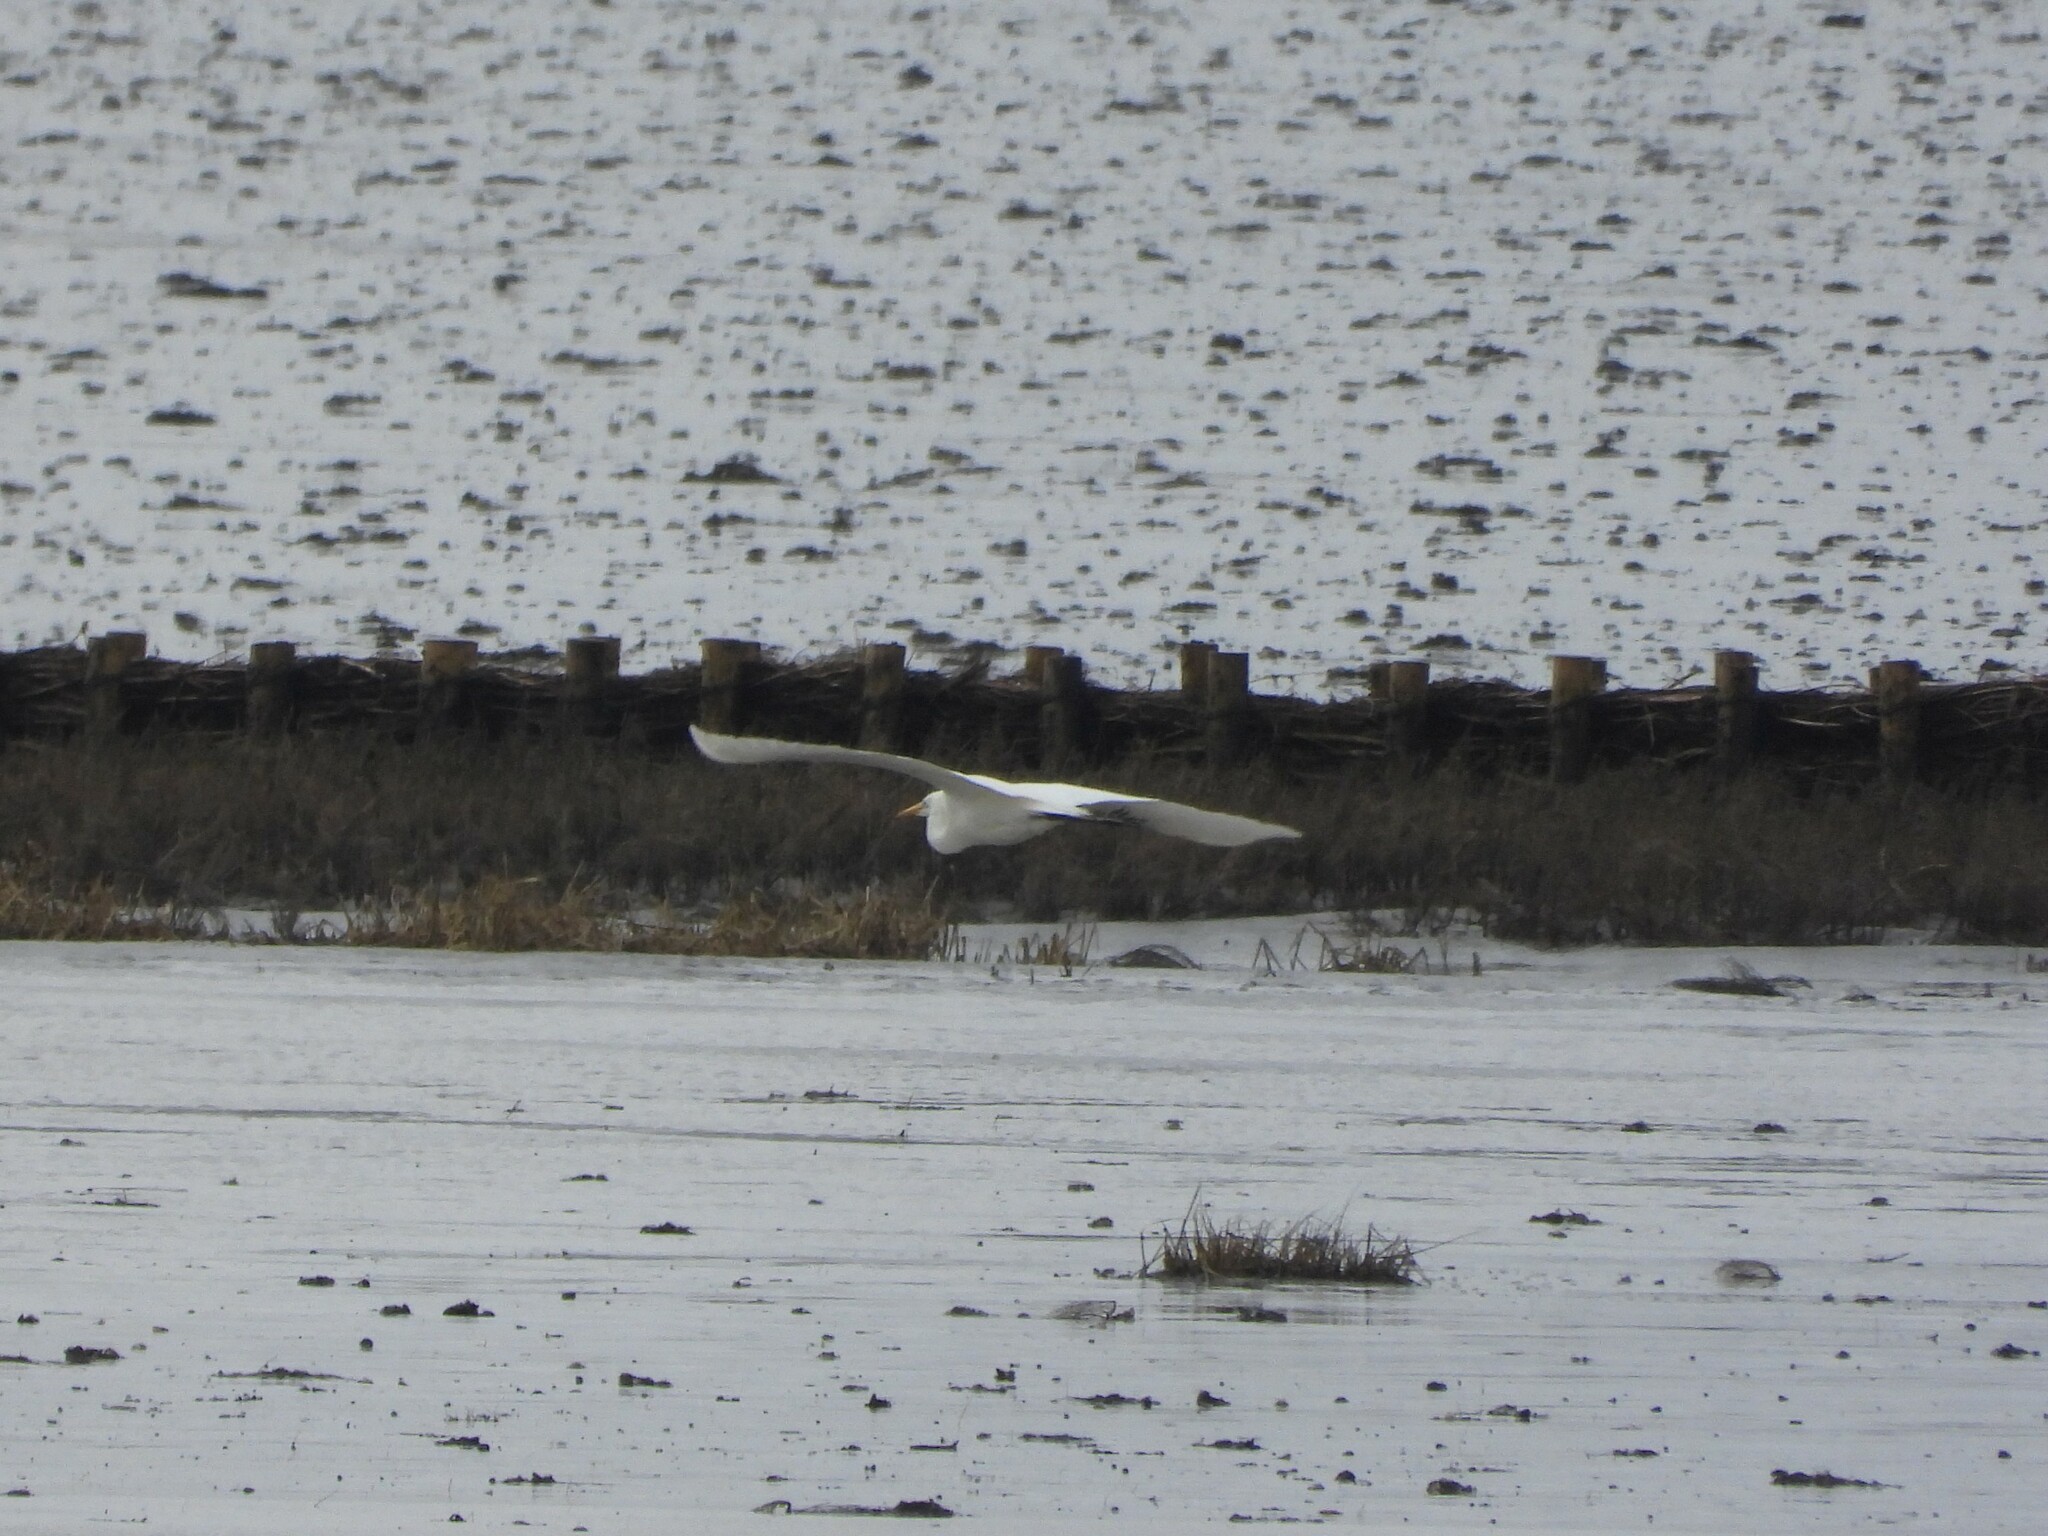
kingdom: Animalia
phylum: Chordata
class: Aves
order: Pelecaniformes
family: Ardeidae
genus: Ardea
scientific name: Ardea alba
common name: Great egret
